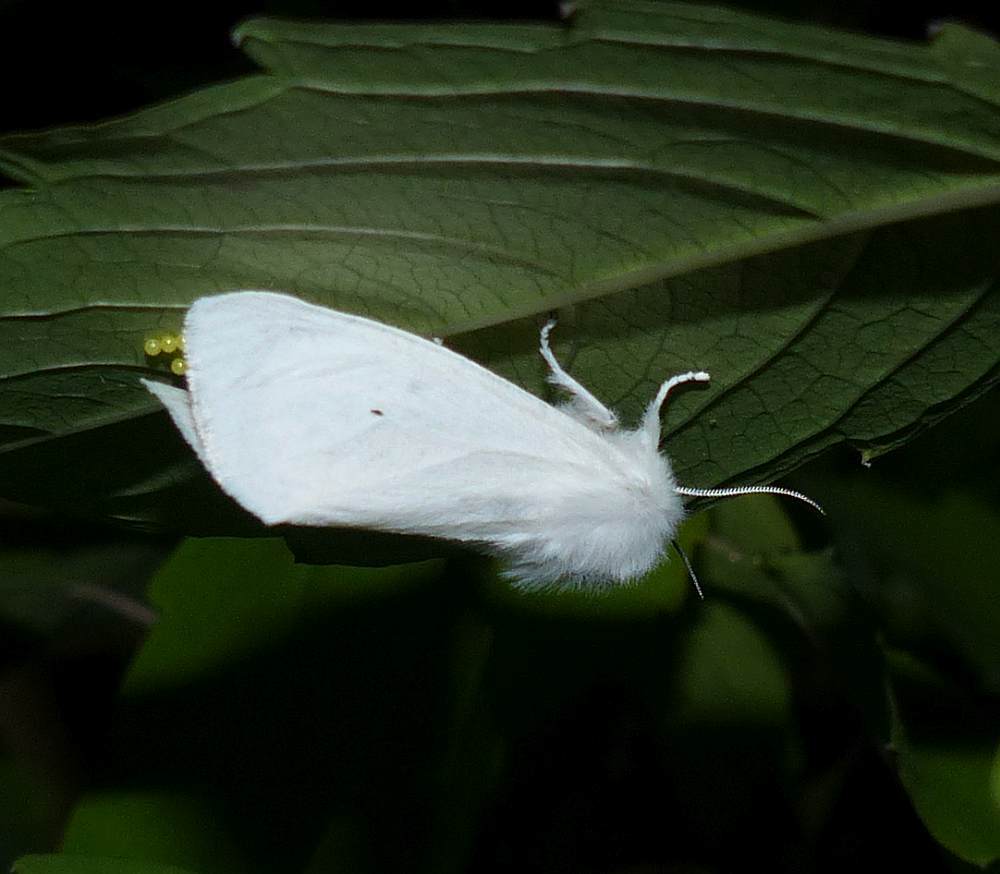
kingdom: Animalia
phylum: Arthropoda
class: Insecta
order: Lepidoptera
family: Erebidae
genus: Spilosoma
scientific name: Spilosoma virginica
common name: Virginia tiger moth
